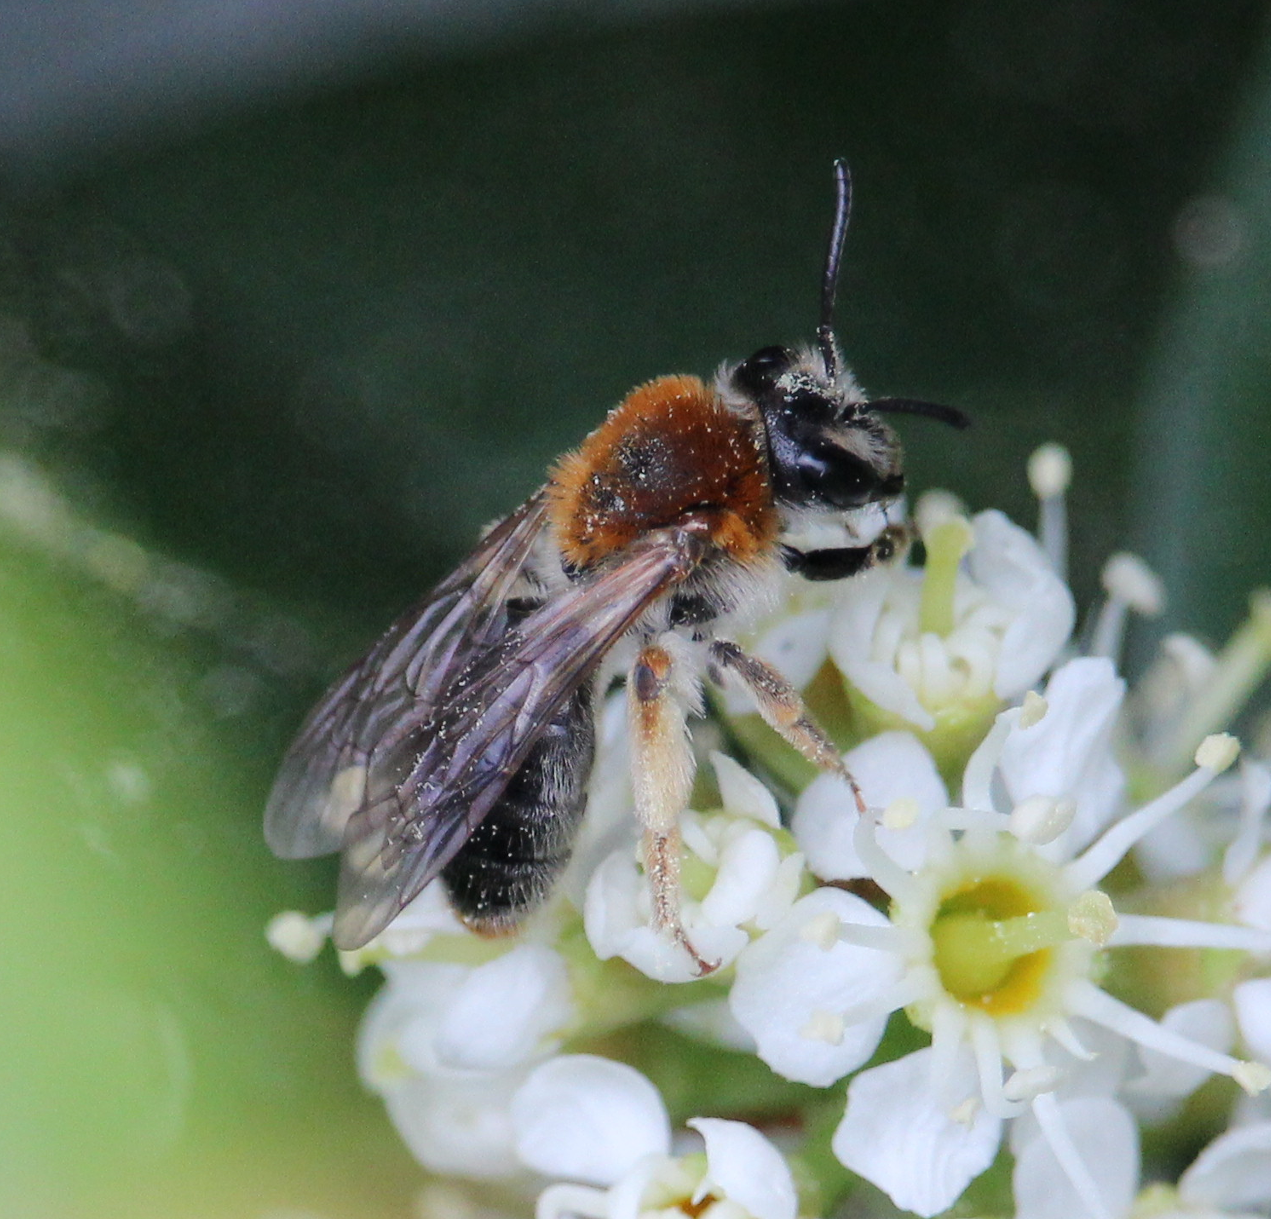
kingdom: Animalia
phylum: Arthropoda
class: Insecta
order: Hymenoptera
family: Andrenidae
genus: Andrena
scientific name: Andrena haemorrhoa
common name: Early mining bee
